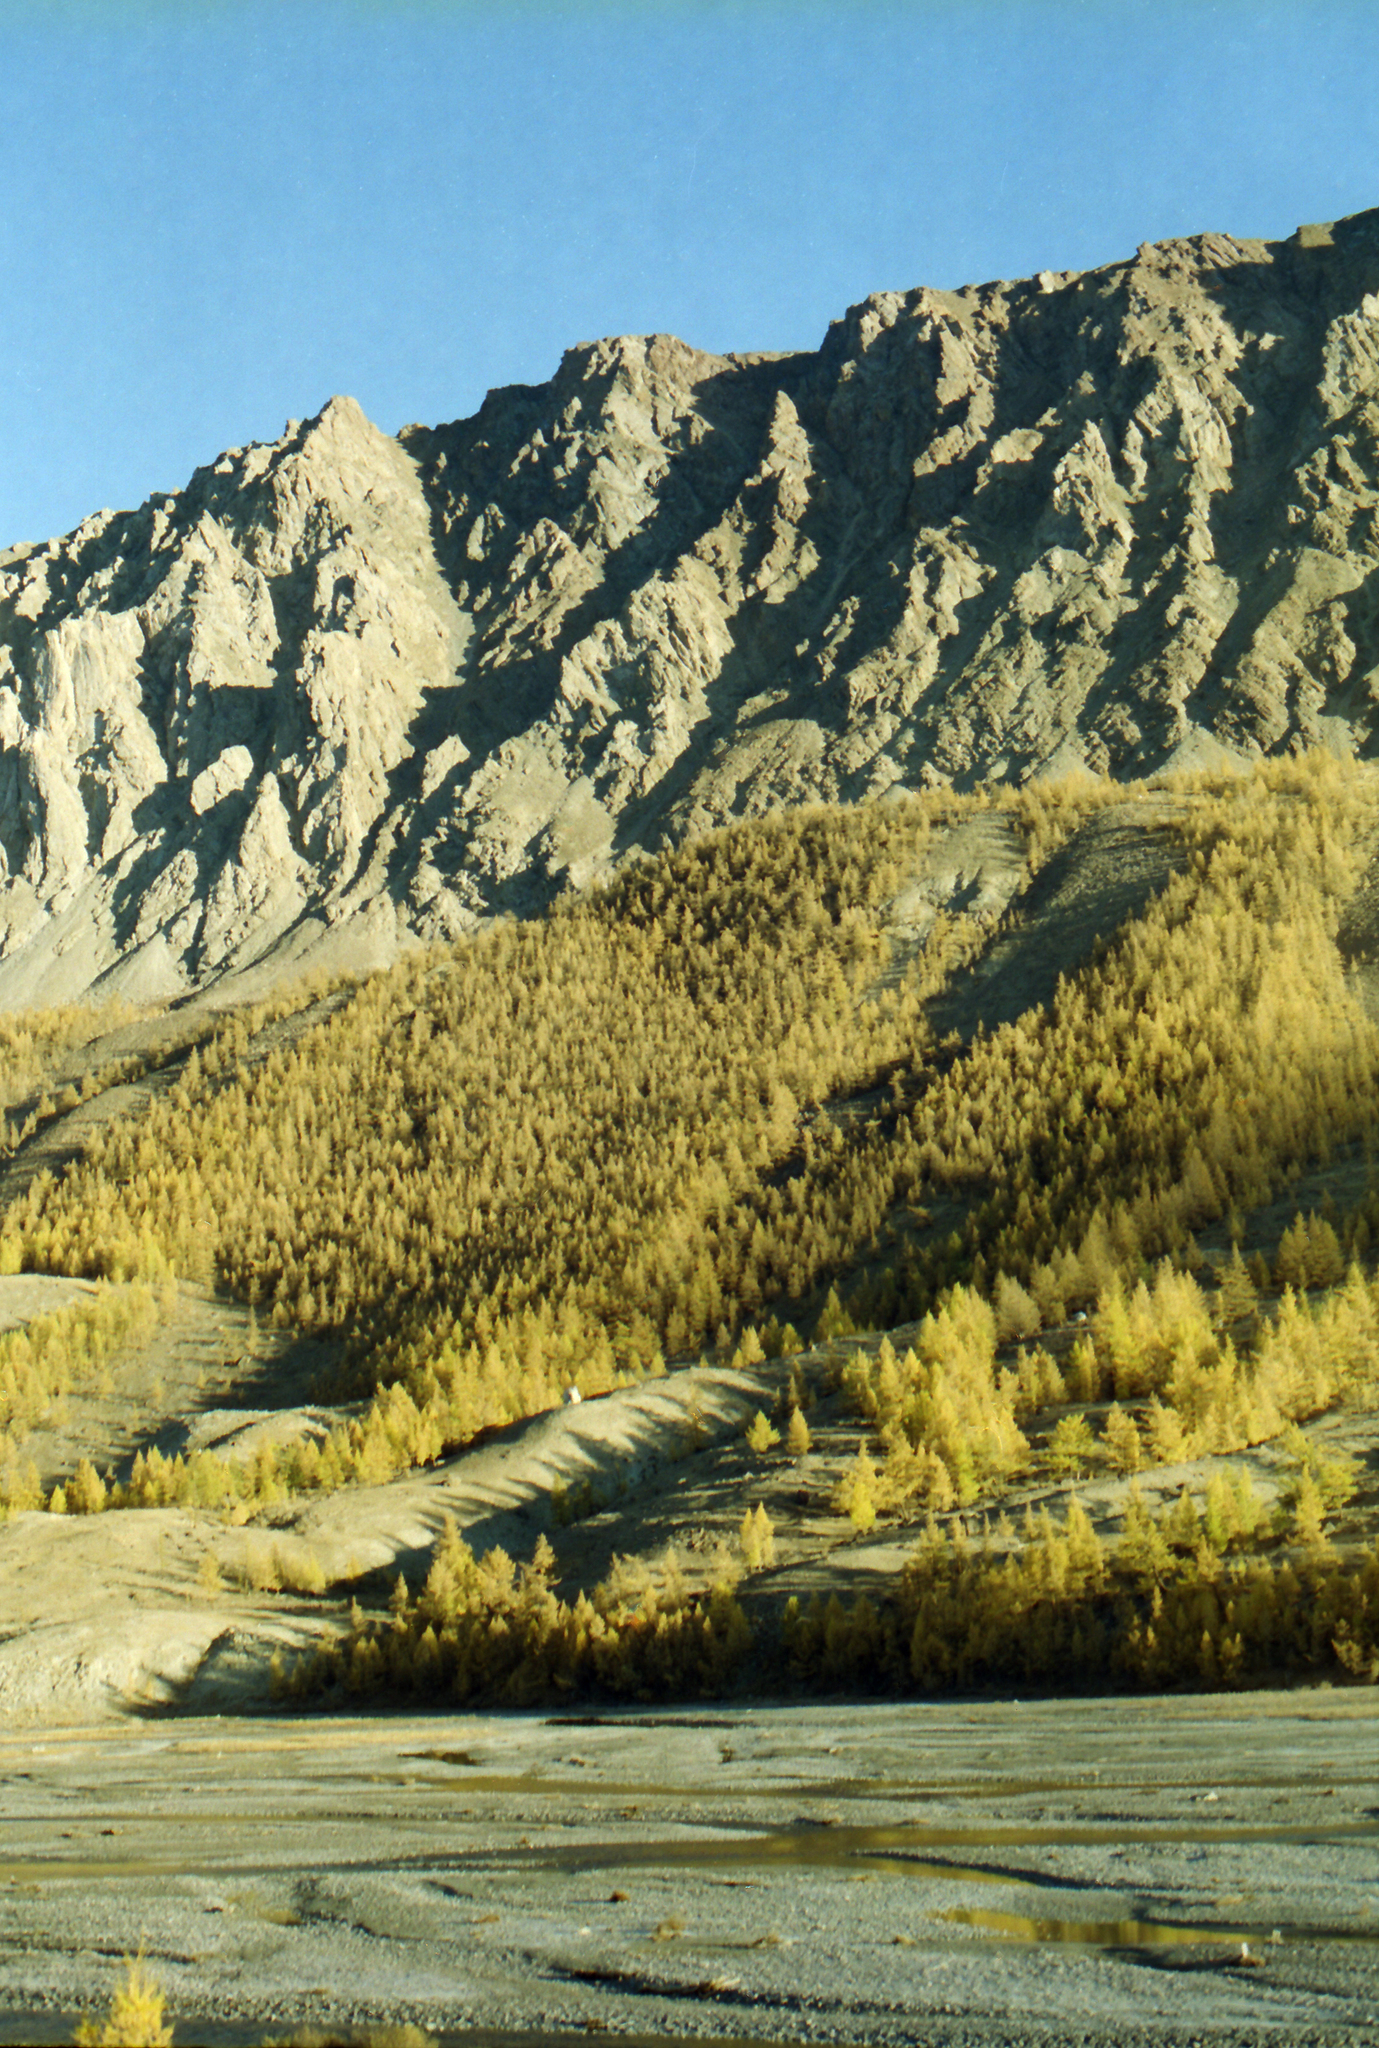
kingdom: Plantae
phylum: Tracheophyta
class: Pinopsida
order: Pinales
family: Pinaceae
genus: Larix
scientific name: Larix sibirica
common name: Siberian larch
